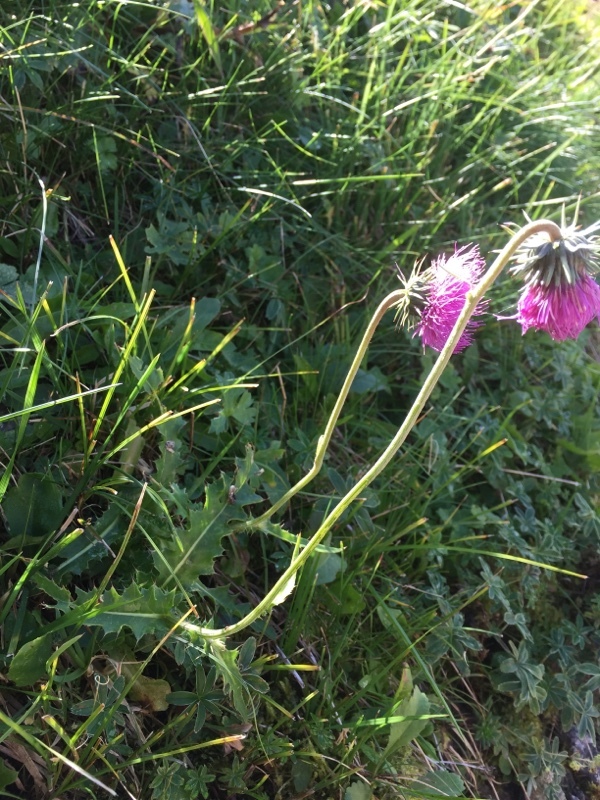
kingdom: Plantae
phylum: Tracheophyta
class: Magnoliopsida
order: Asterales
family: Asteraceae
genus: Carduus
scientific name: Carduus defloratus
